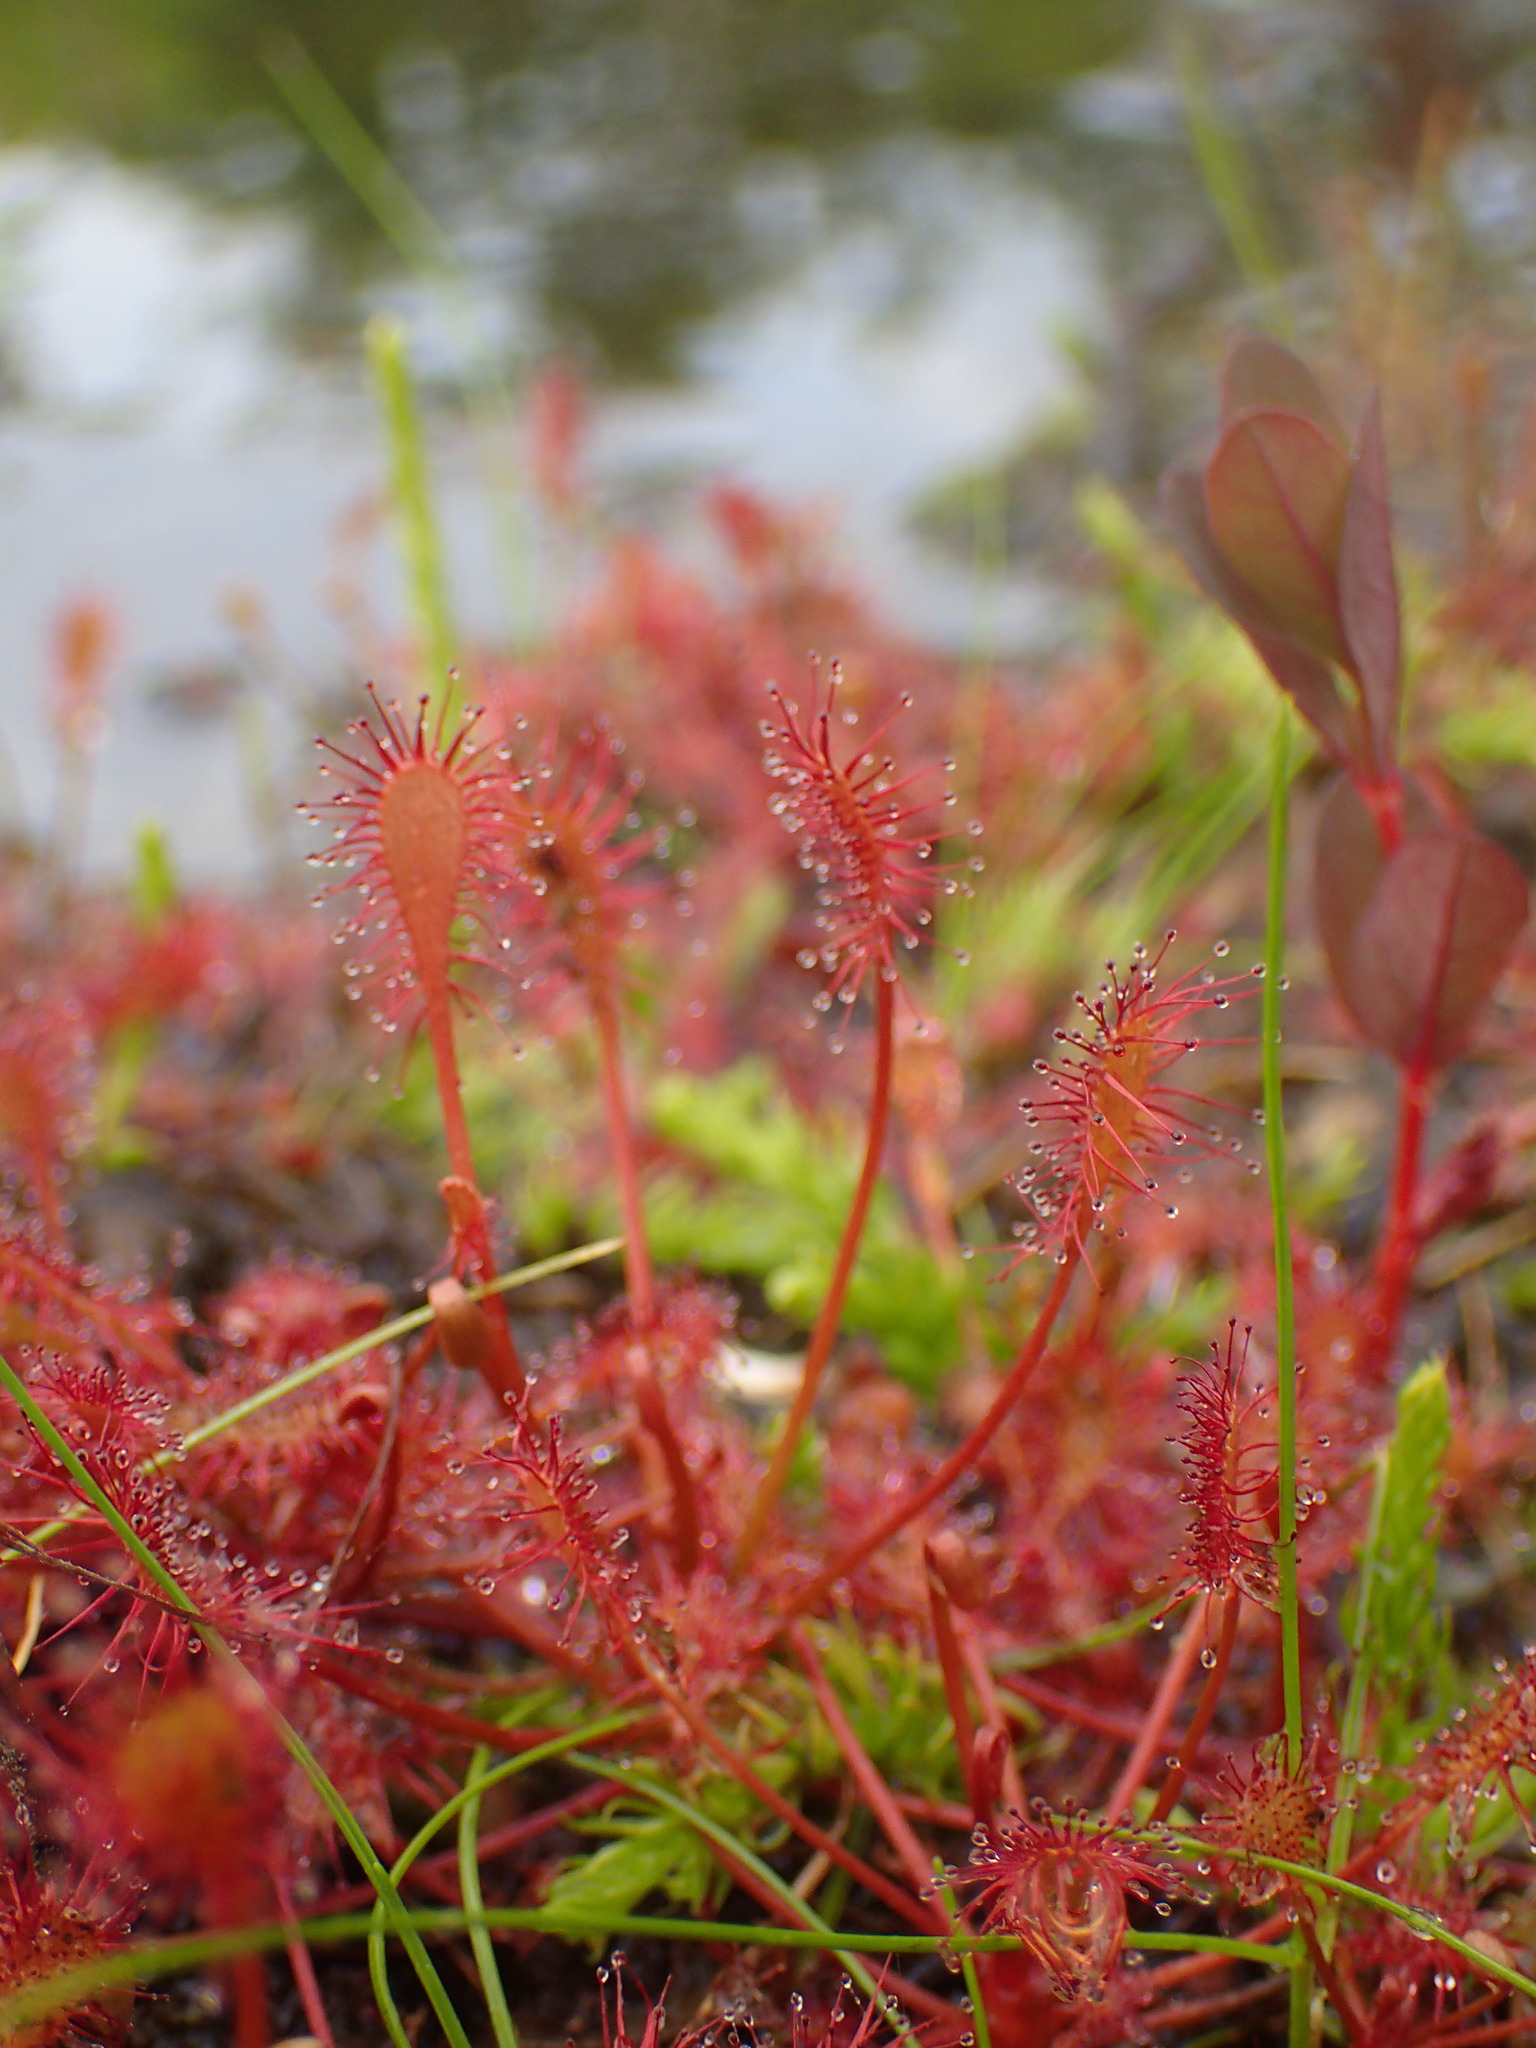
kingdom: Plantae
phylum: Tracheophyta
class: Magnoliopsida
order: Caryophyllales
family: Droseraceae
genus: Drosera
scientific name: Drosera intermedia
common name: Oblong-leaved sundew
